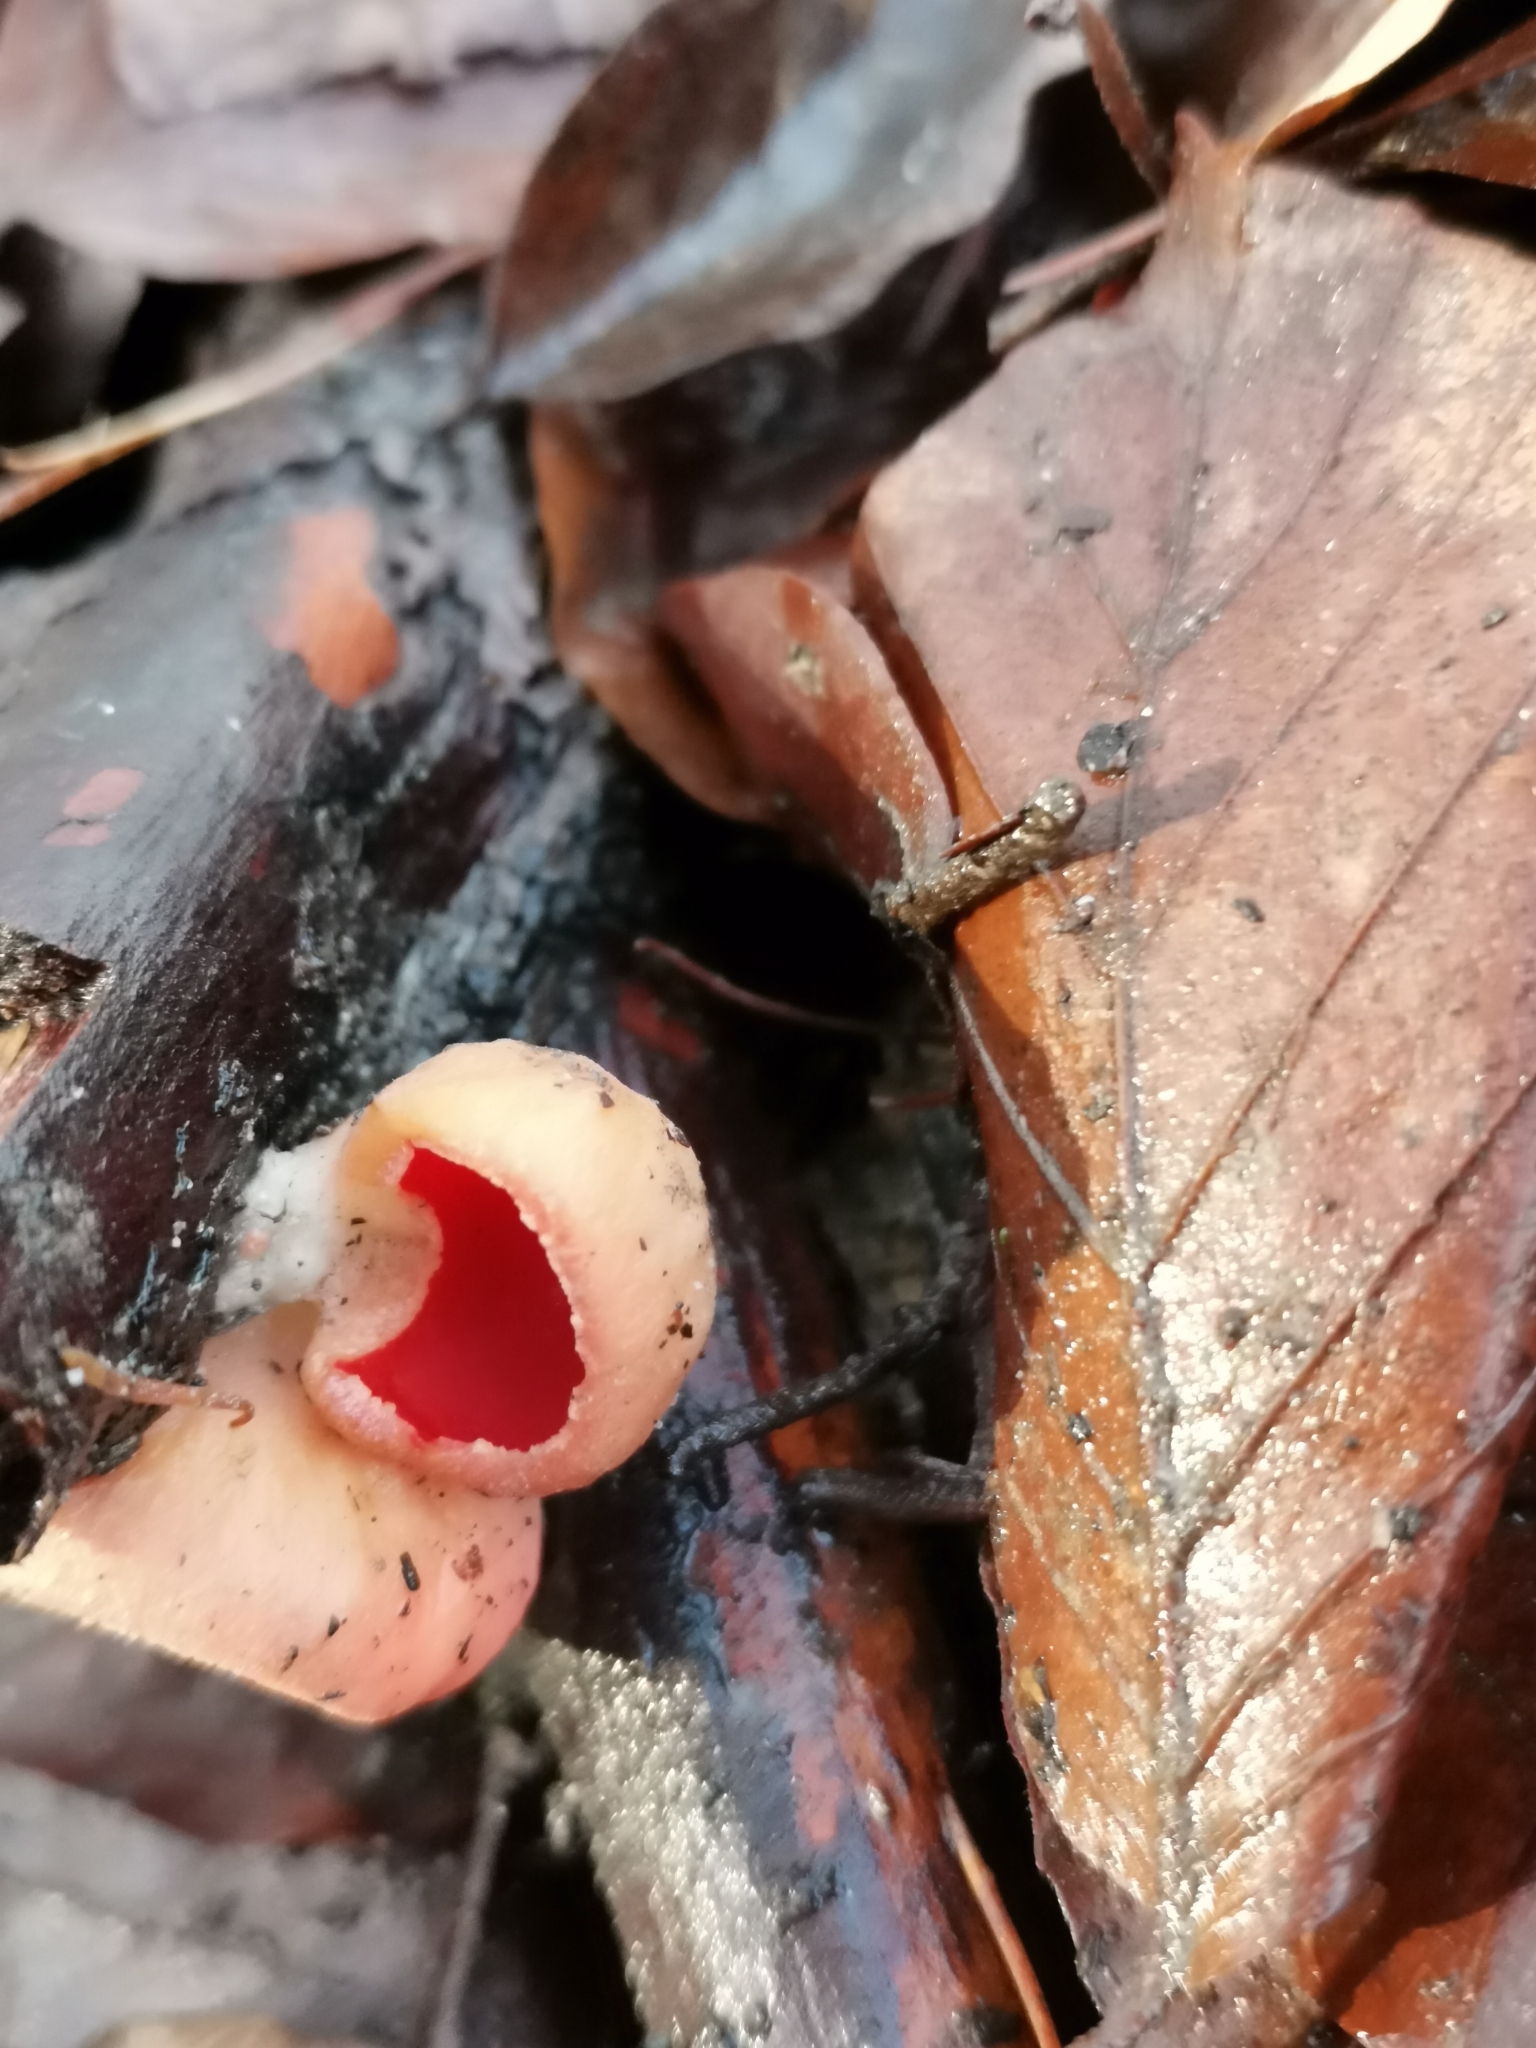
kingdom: Fungi
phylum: Ascomycota
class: Pezizomycetes
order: Pezizales
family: Sarcoscyphaceae
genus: Sarcoscypha
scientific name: Sarcoscypha
